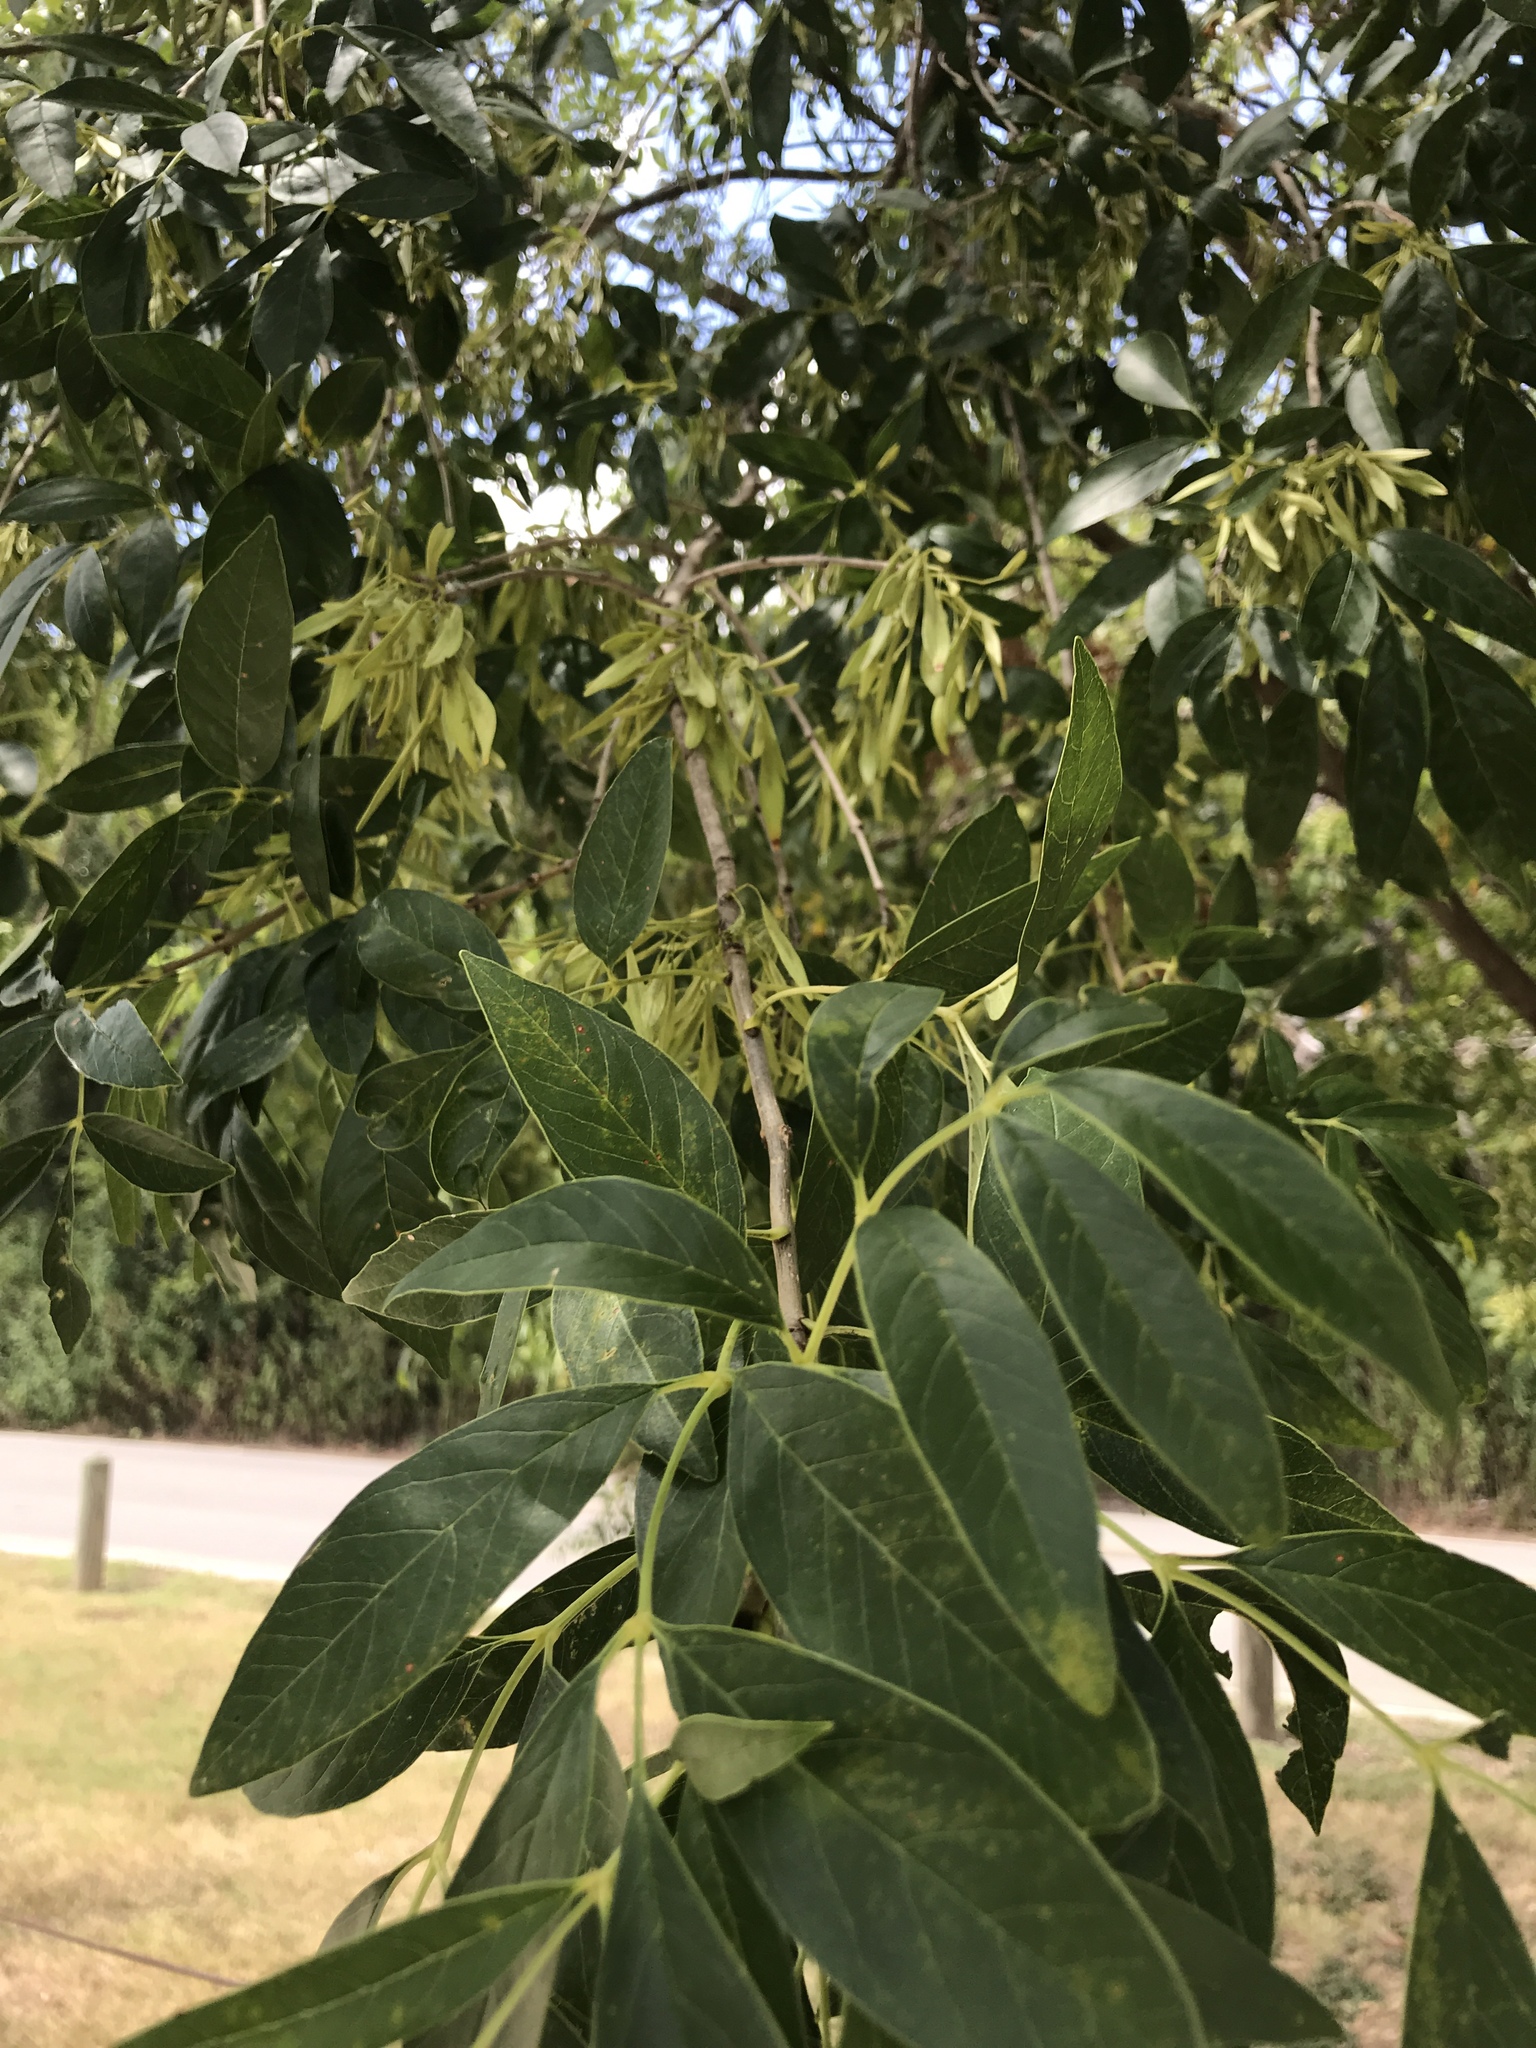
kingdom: Plantae
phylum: Tracheophyta
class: Magnoliopsida
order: Lamiales
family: Oleaceae
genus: Fraxinus
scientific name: Fraxinus berlandieriana
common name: Berlandier ash
